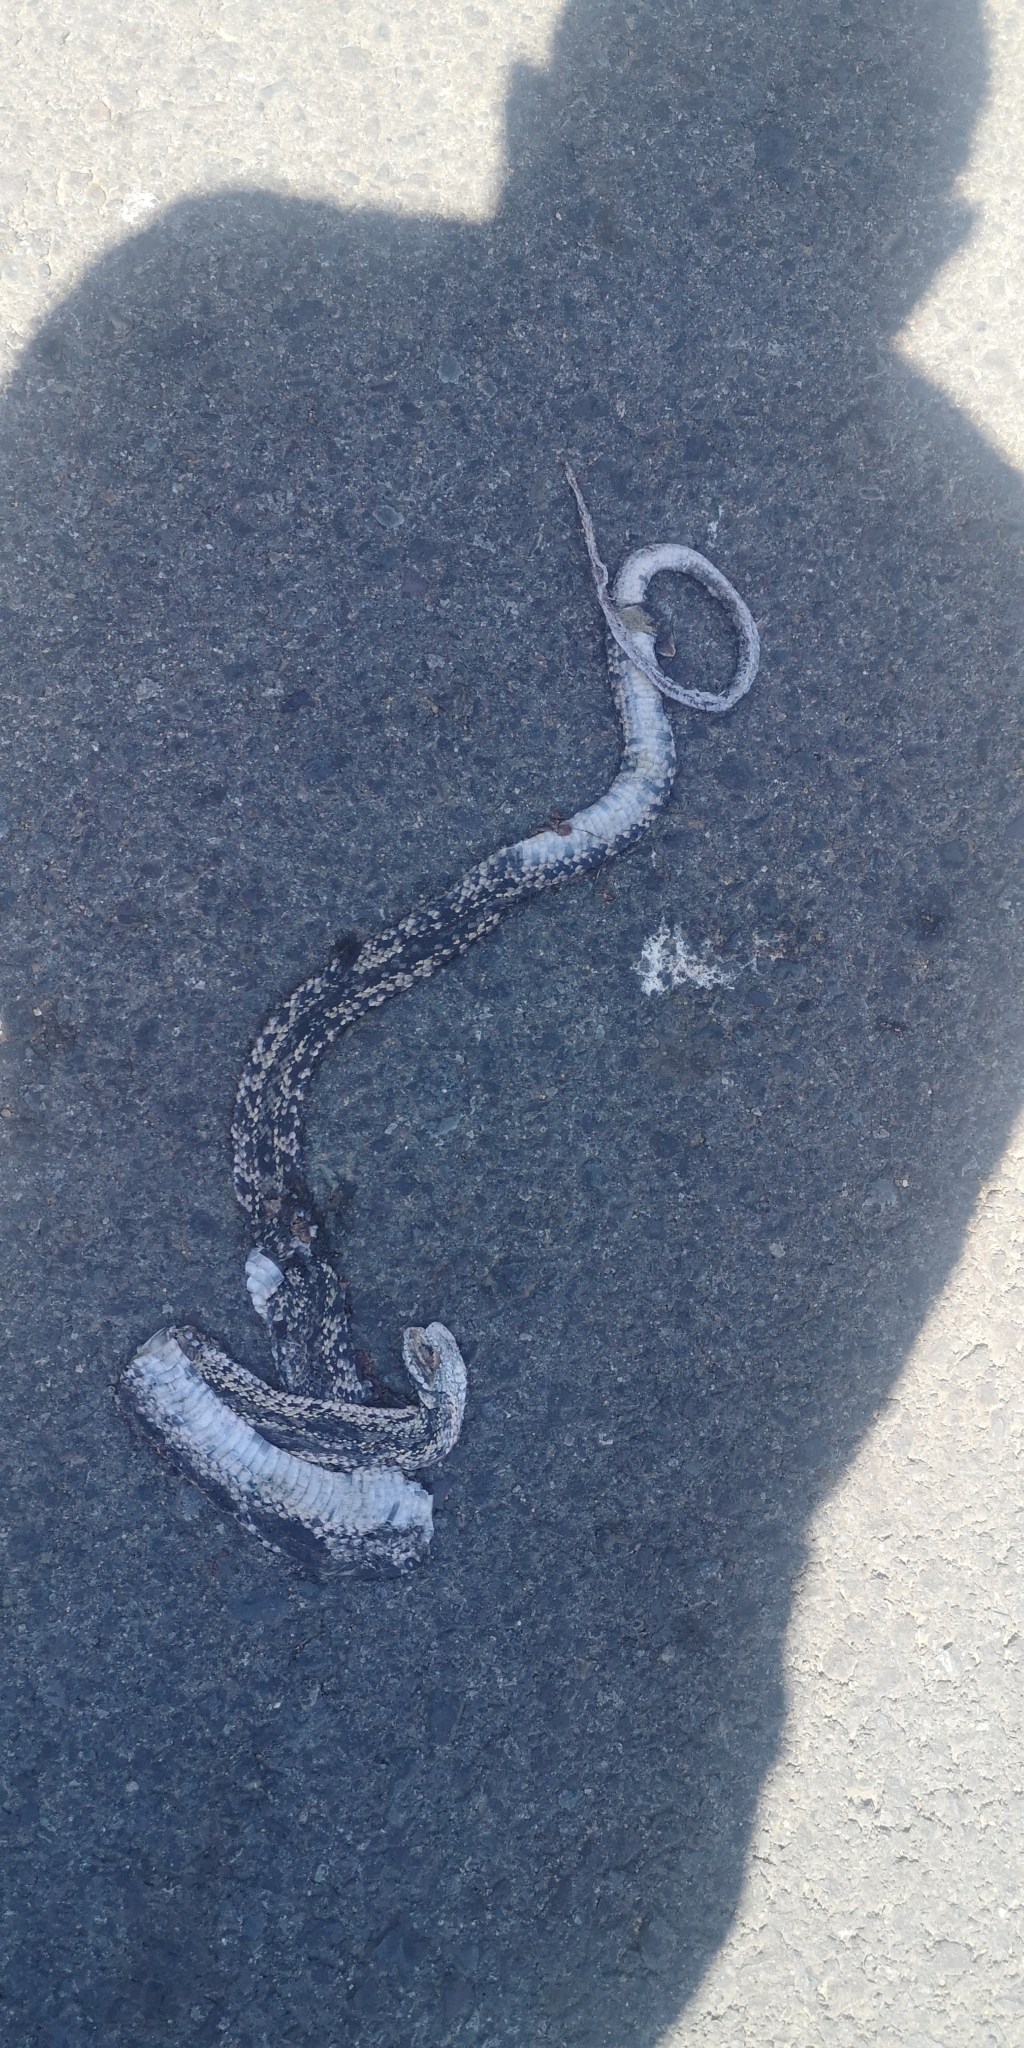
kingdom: Animalia
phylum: Chordata
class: Squamata
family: Colubridae
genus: Philodryas
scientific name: Philodryas chamissonis
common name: Chilean green racer
